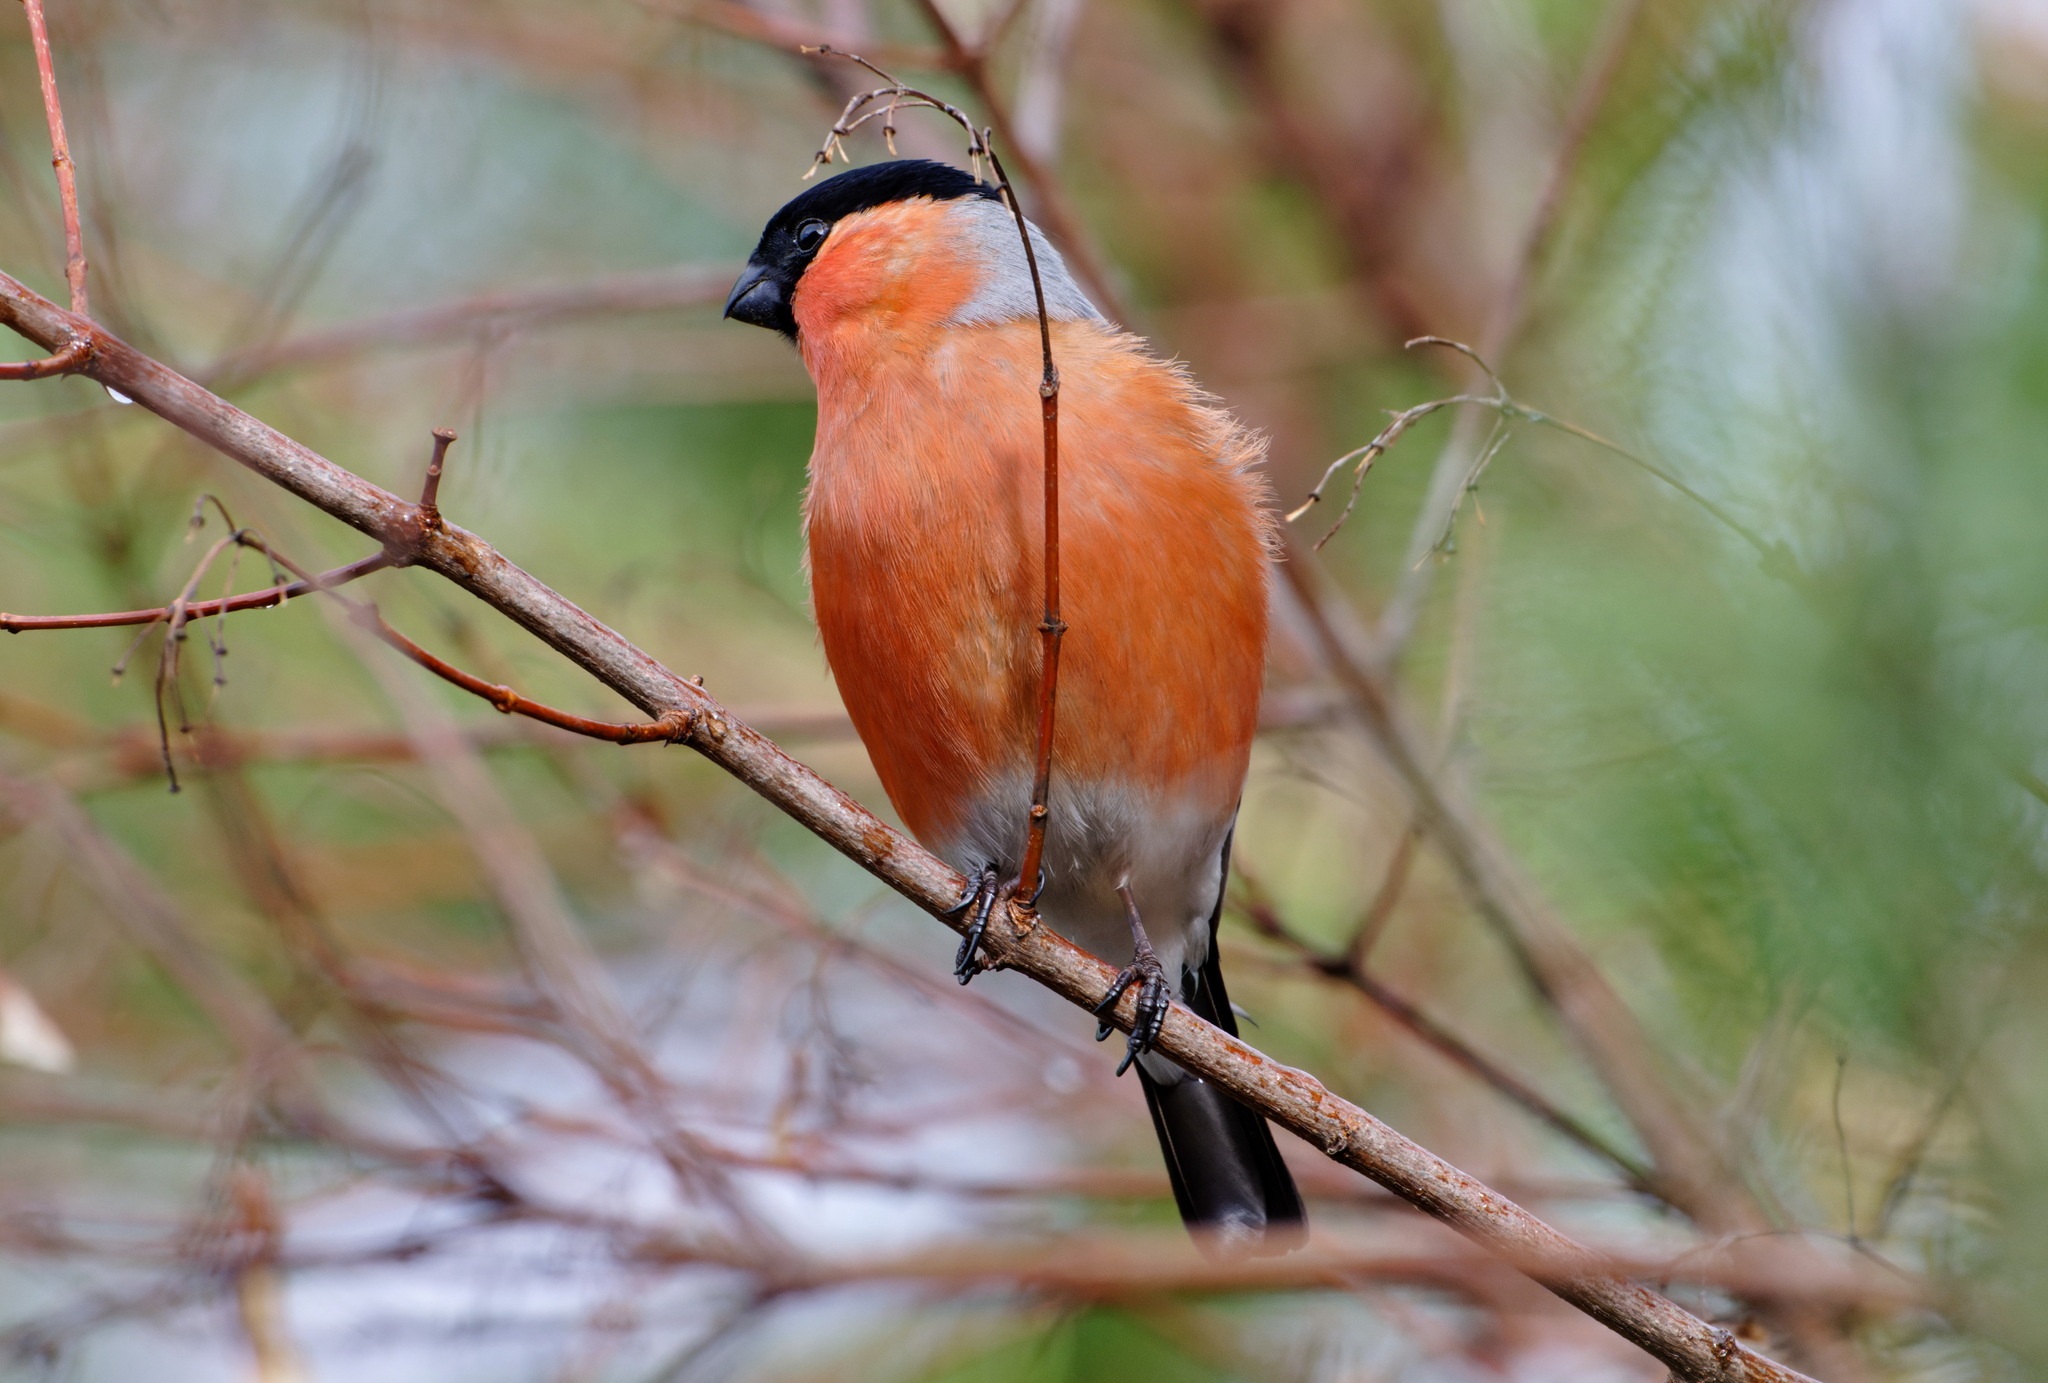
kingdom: Animalia
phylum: Chordata
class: Aves
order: Passeriformes
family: Fringillidae
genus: Pyrrhula
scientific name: Pyrrhula pyrrhula
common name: Eurasian bullfinch
